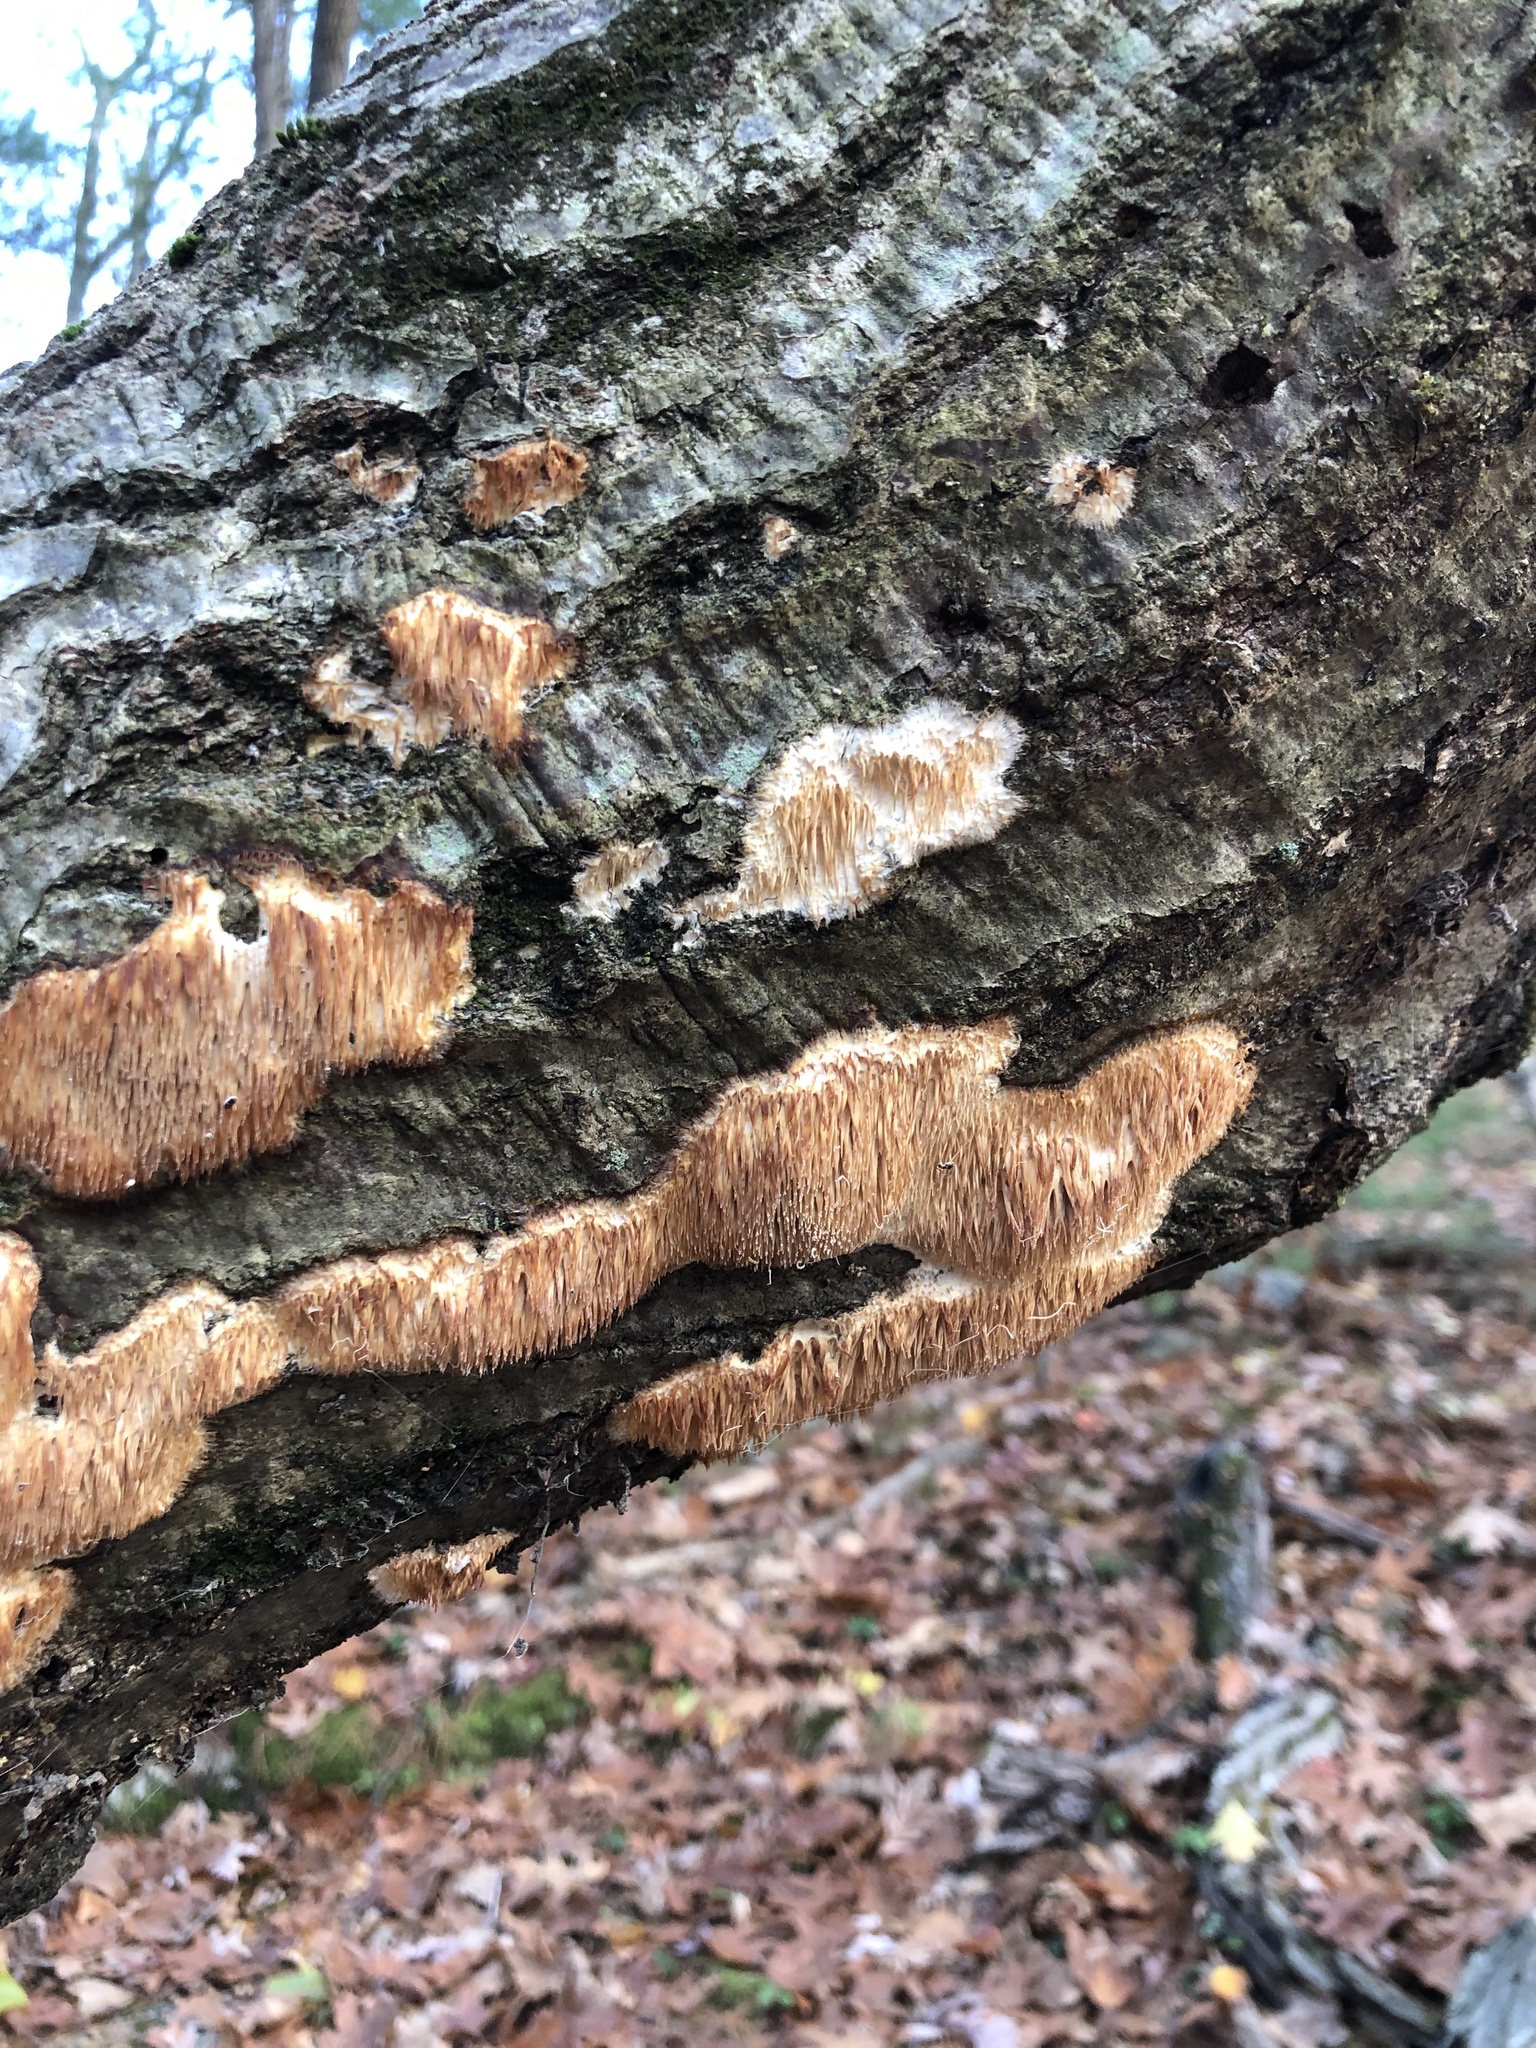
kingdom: Fungi
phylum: Basidiomycota
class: Agaricomycetes
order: Agaricales
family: Radulomycetaceae
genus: Radulomyces
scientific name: Radulomyces copelandii
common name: Asian beauty
